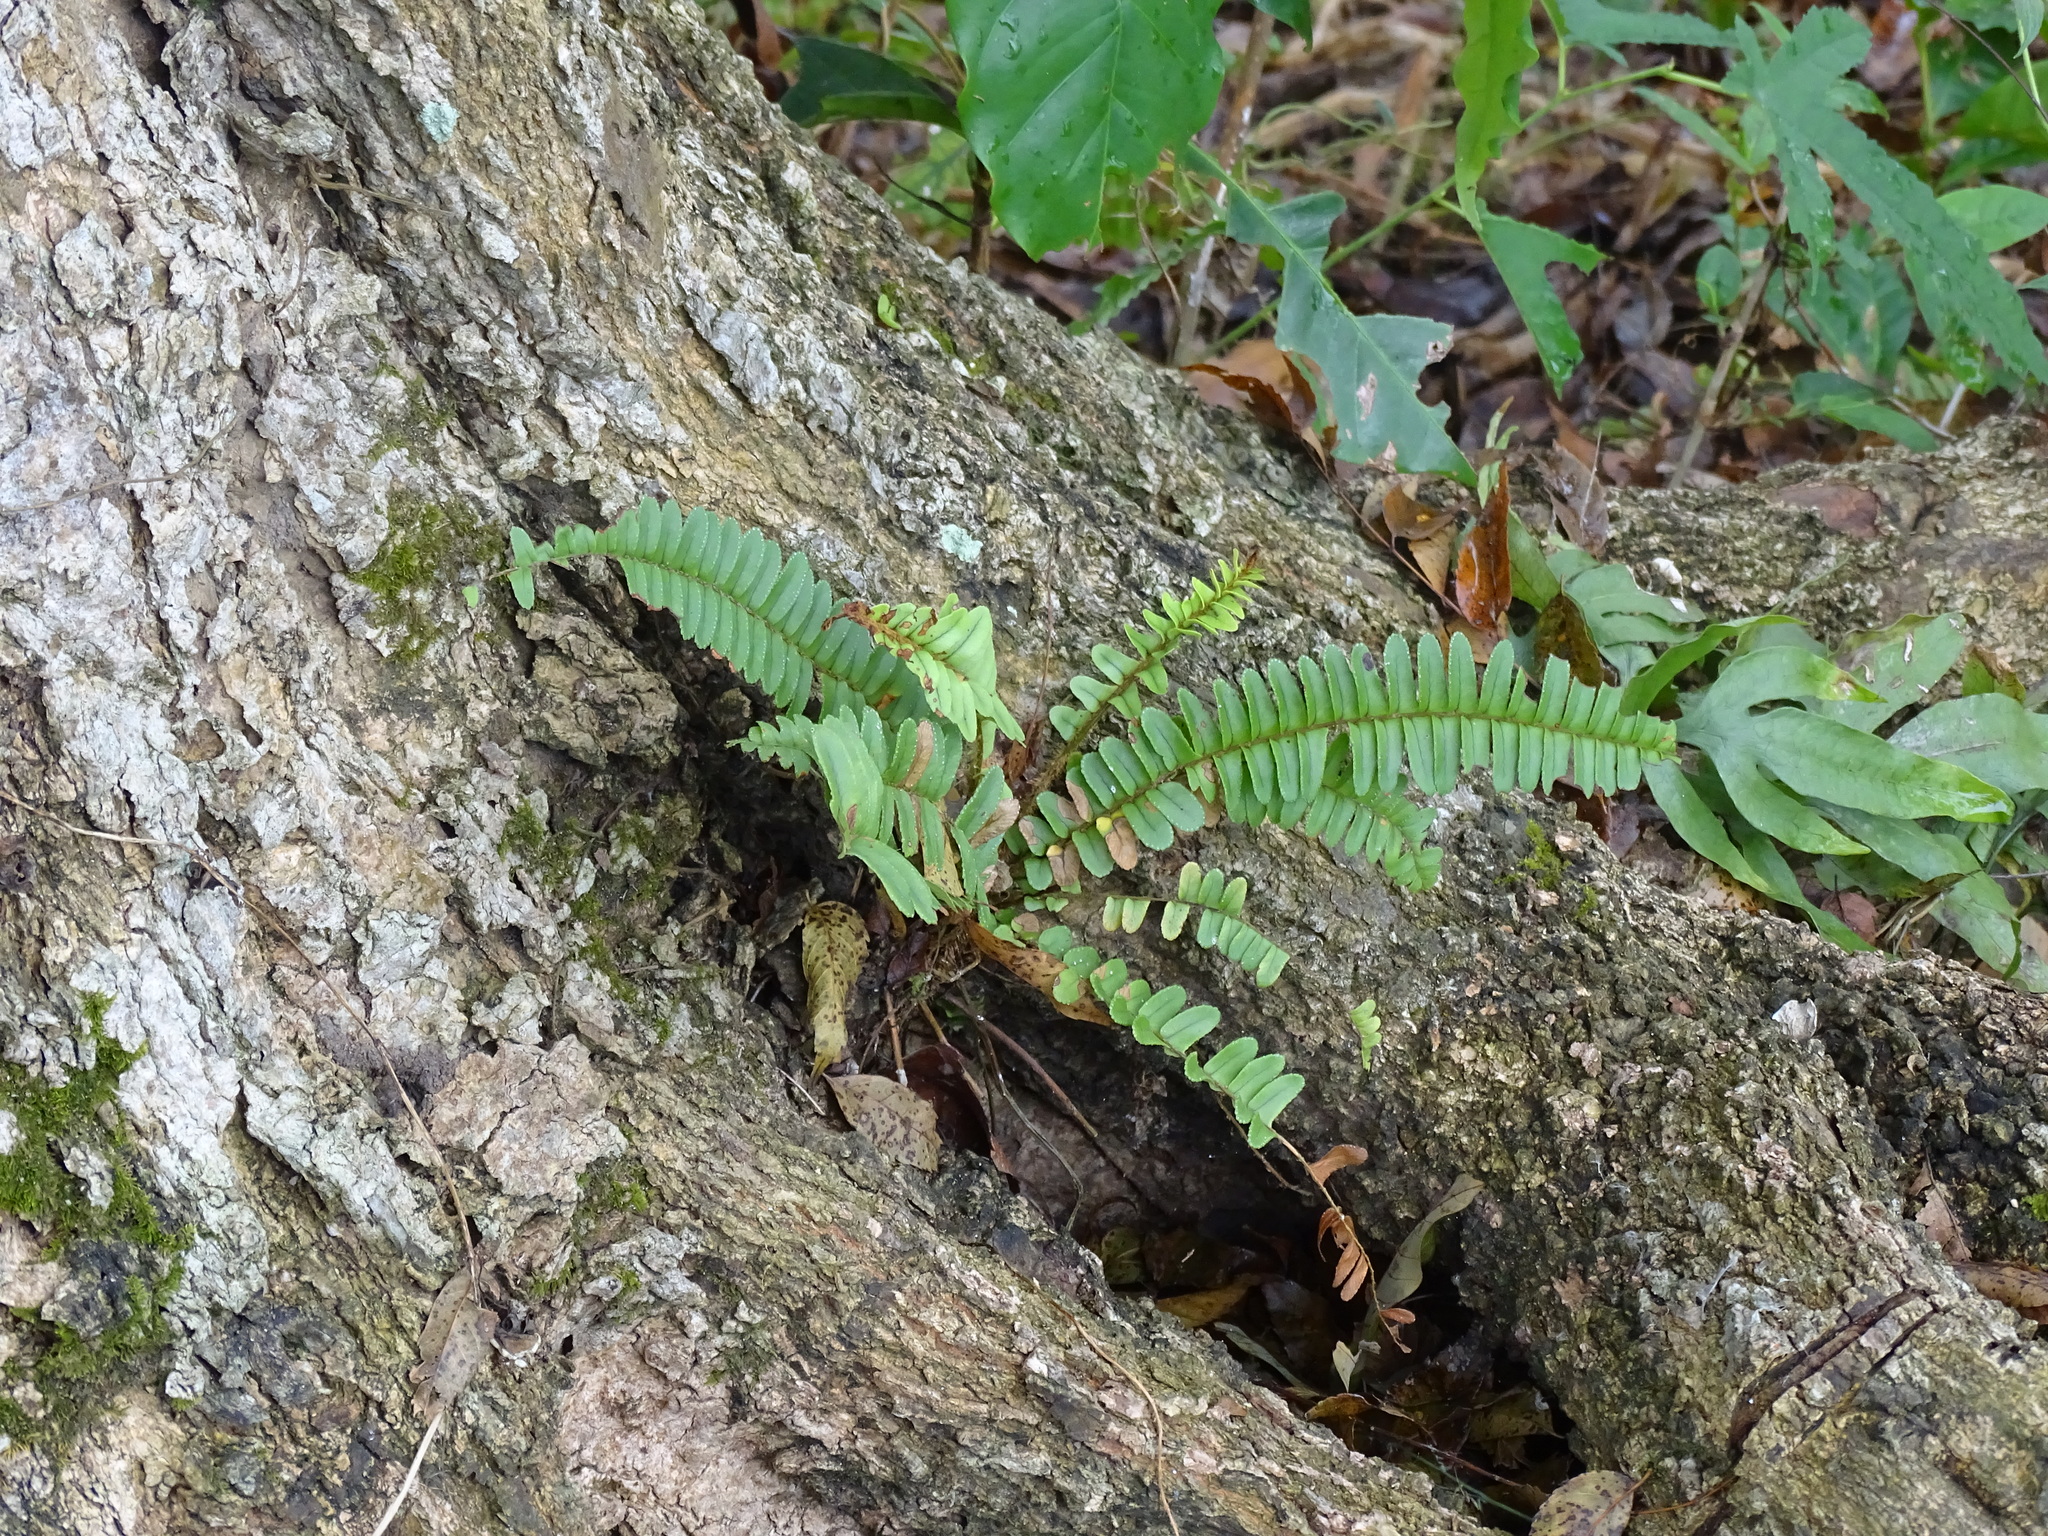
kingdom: Plantae
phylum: Tracheophyta
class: Polypodiopsida
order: Polypodiales
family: Nephrolepidaceae
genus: Nephrolepis
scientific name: Nephrolepis cordifolia
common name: Narrow swordfern
